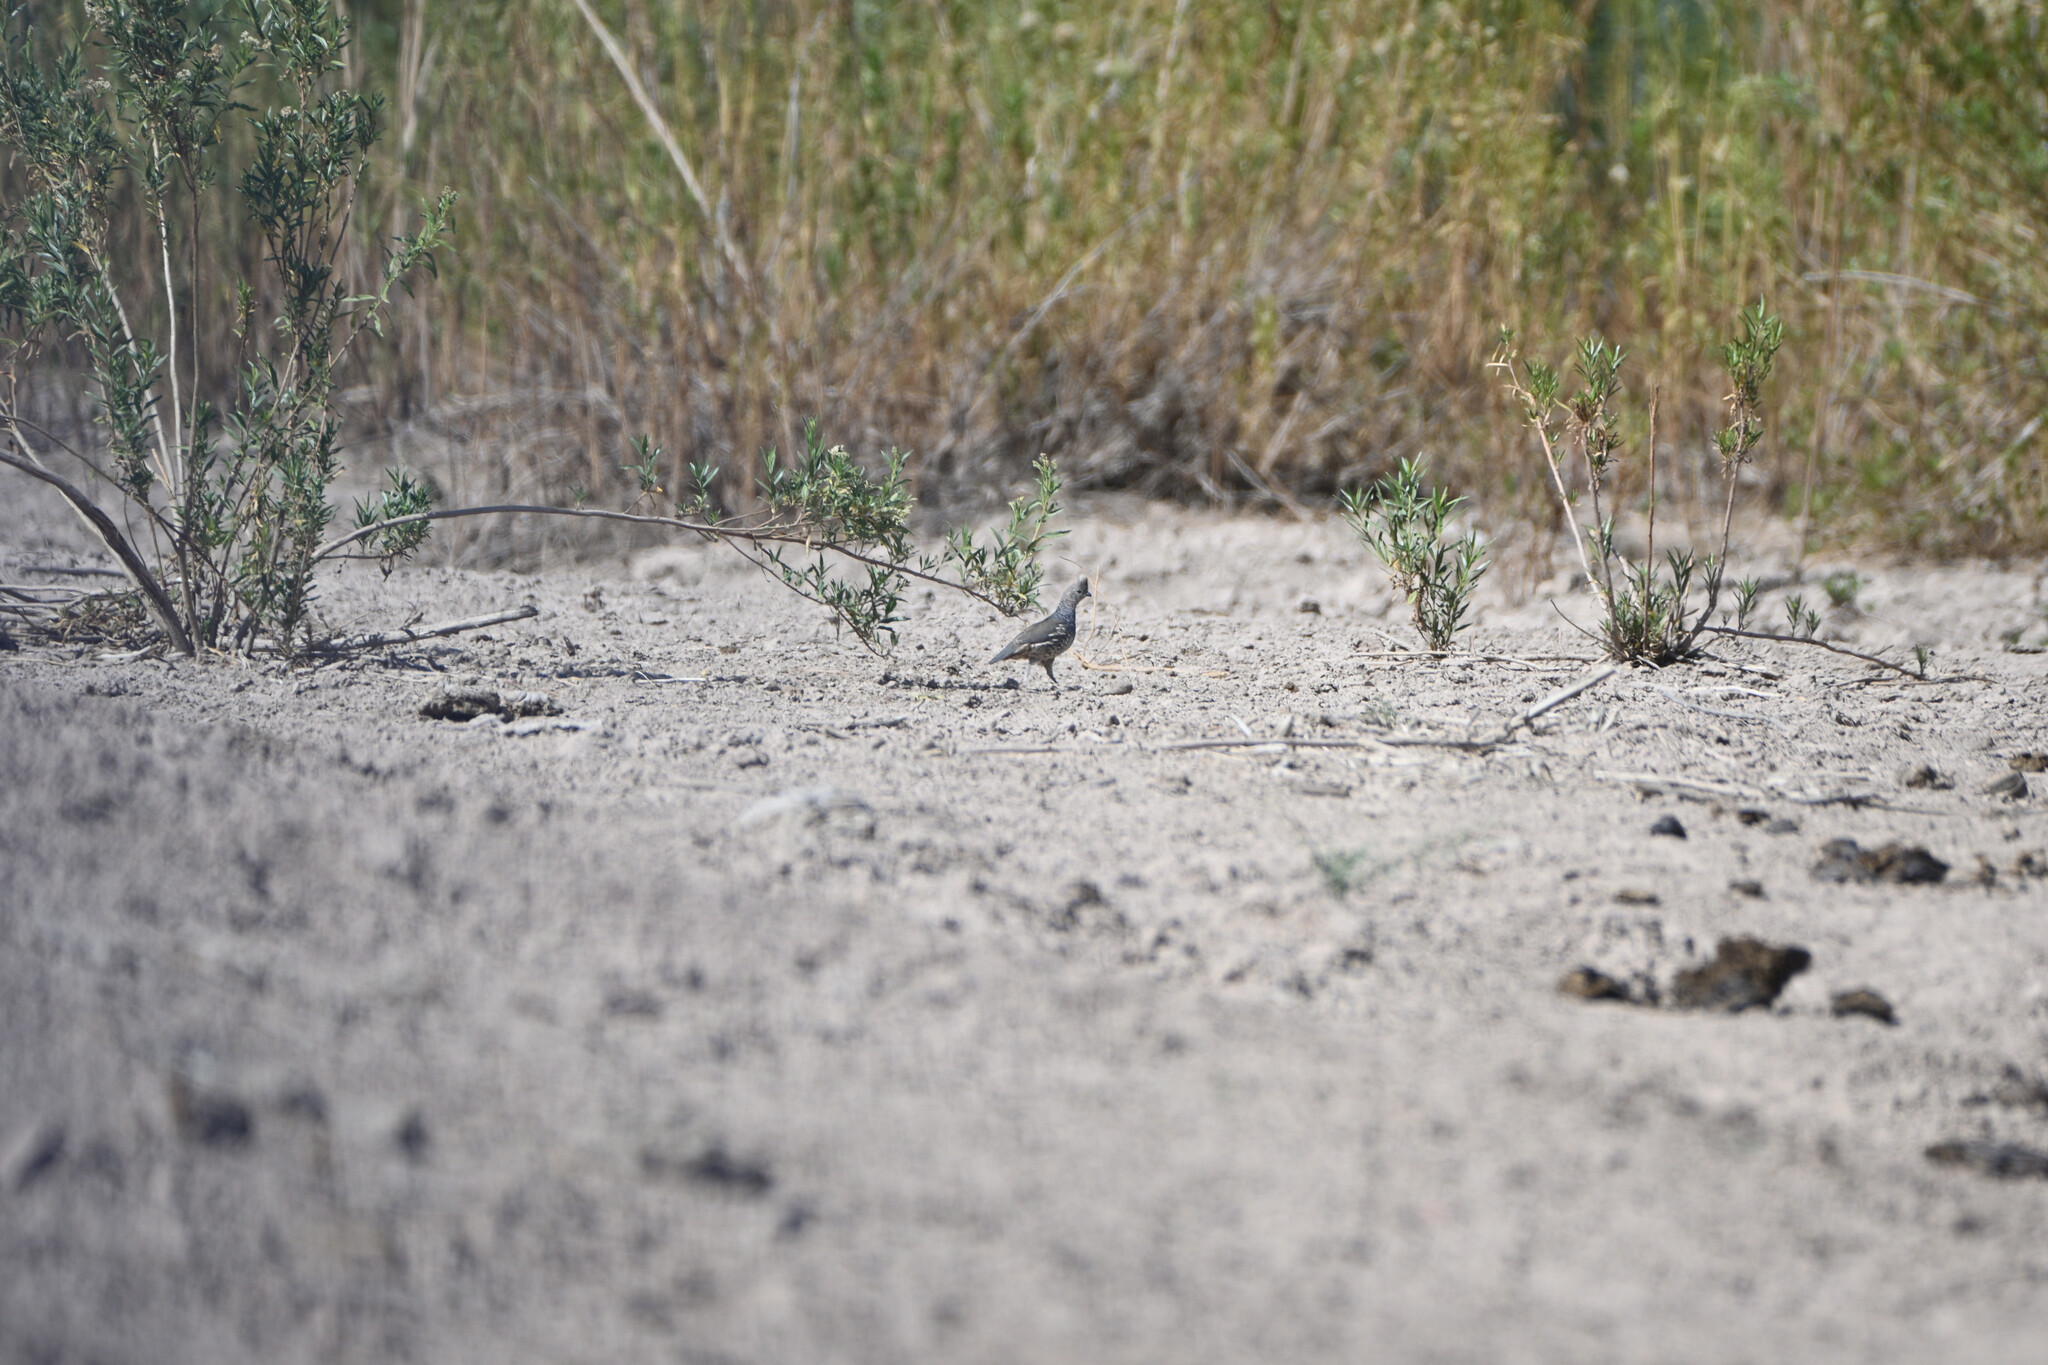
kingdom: Animalia
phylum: Chordata
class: Aves
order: Galliformes
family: Odontophoridae
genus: Callipepla
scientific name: Callipepla squamata
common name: Scaled quail
